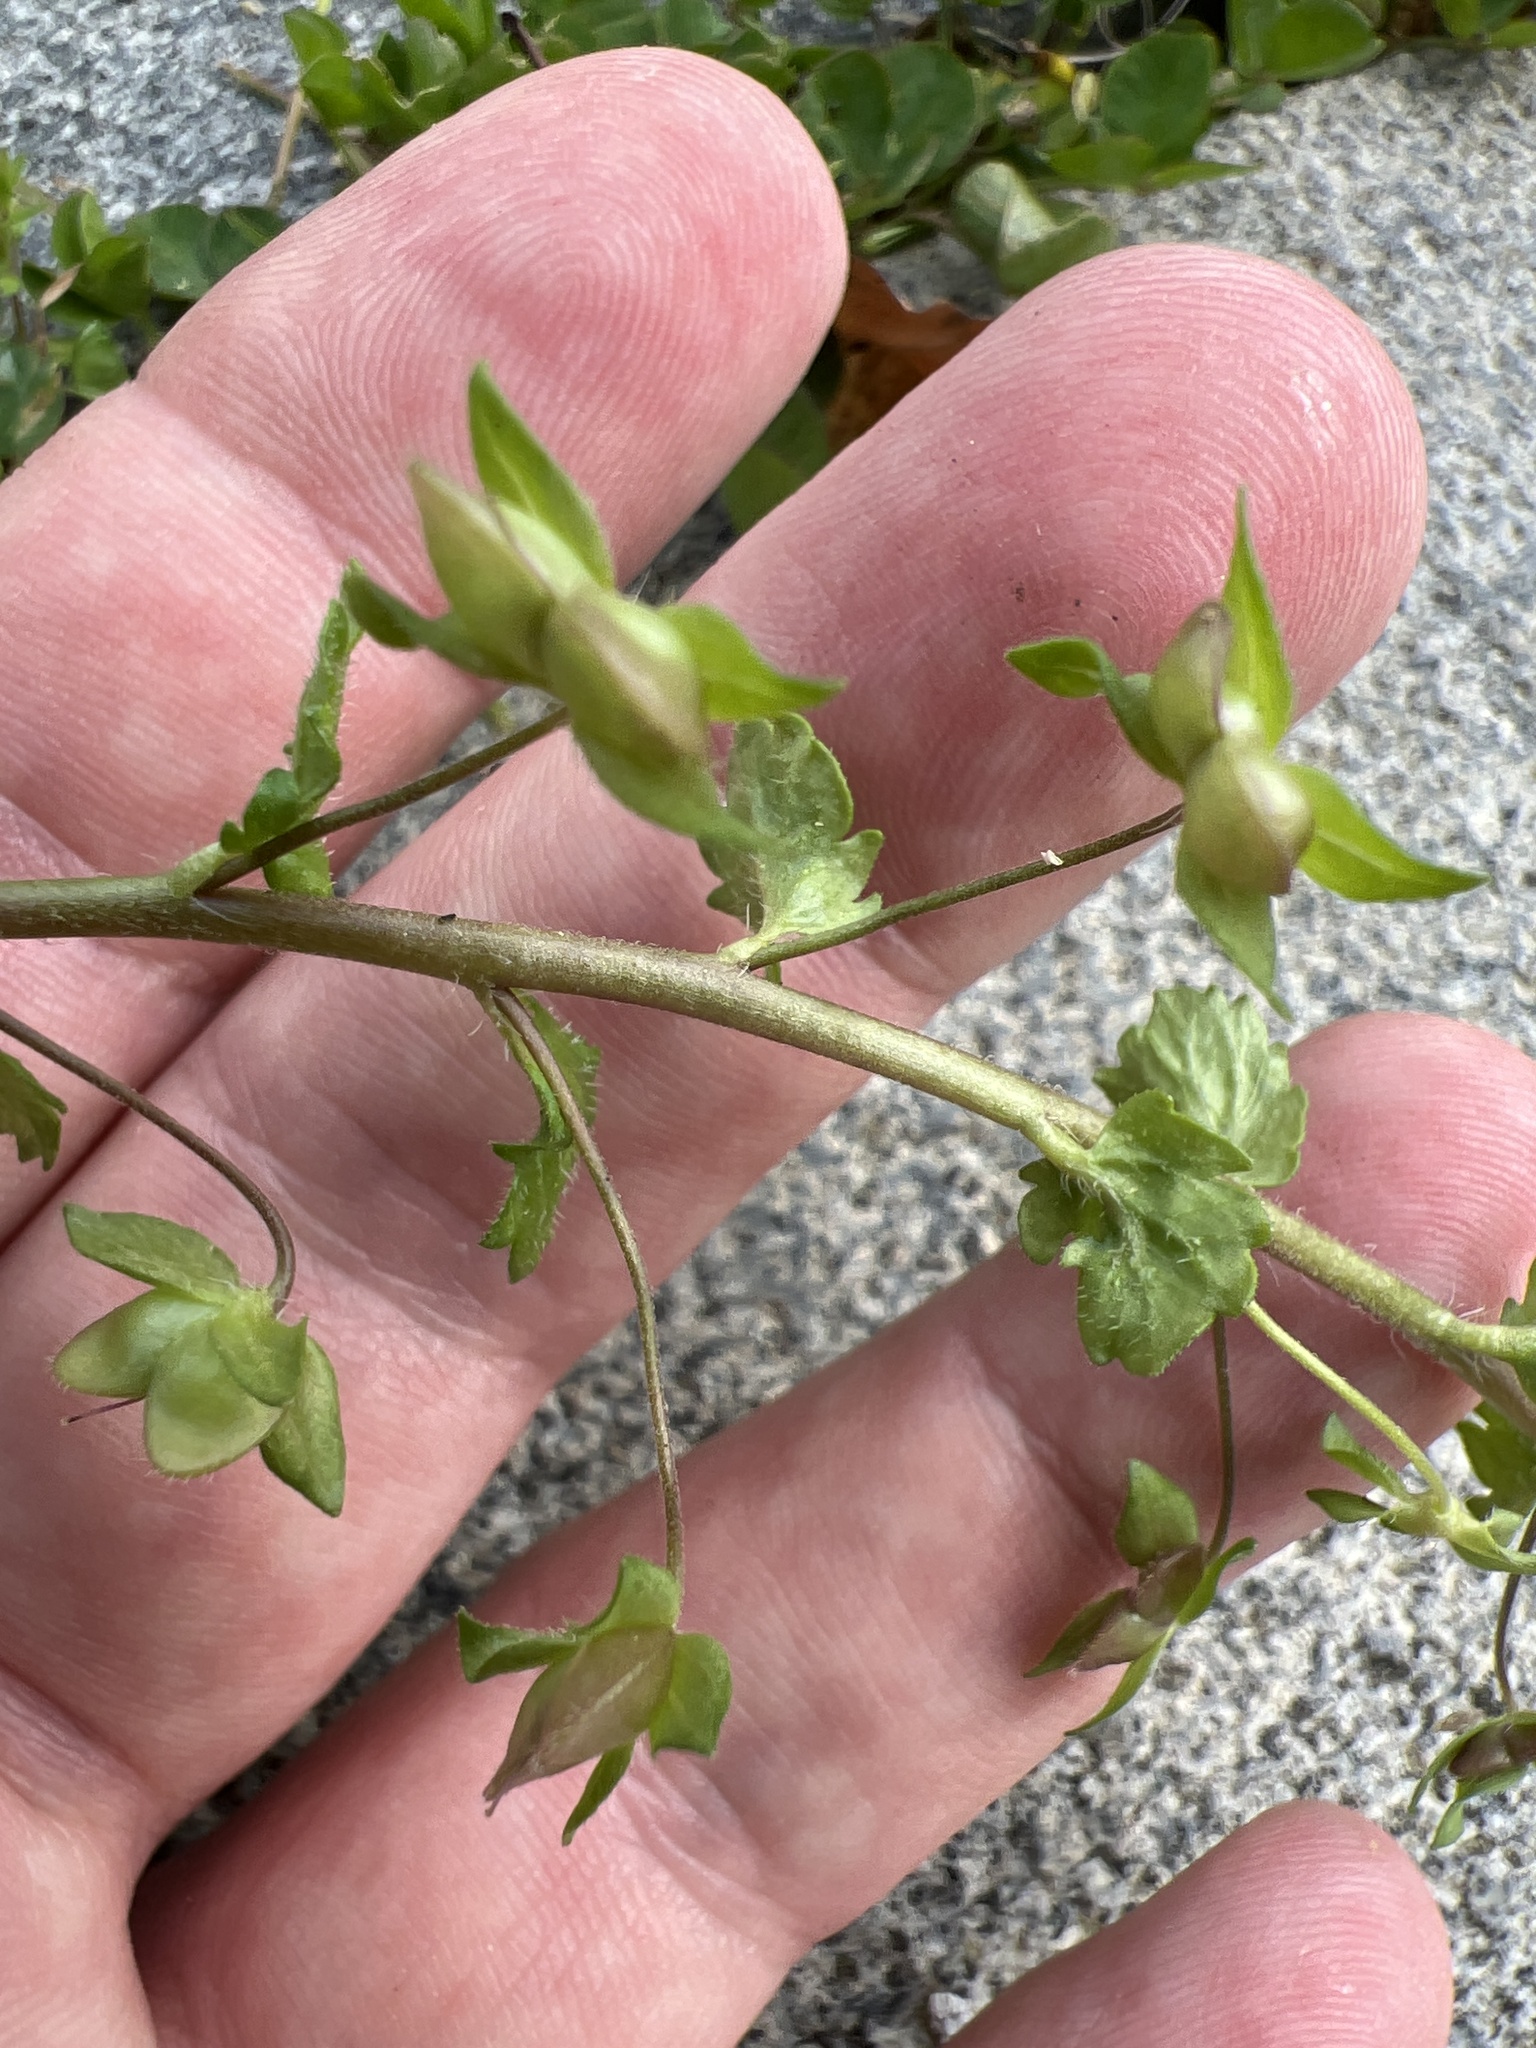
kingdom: Plantae
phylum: Tracheophyta
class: Magnoliopsida
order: Lamiales
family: Plantaginaceae
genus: Veronica
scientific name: Veronica persica
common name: Common field-speedwell
